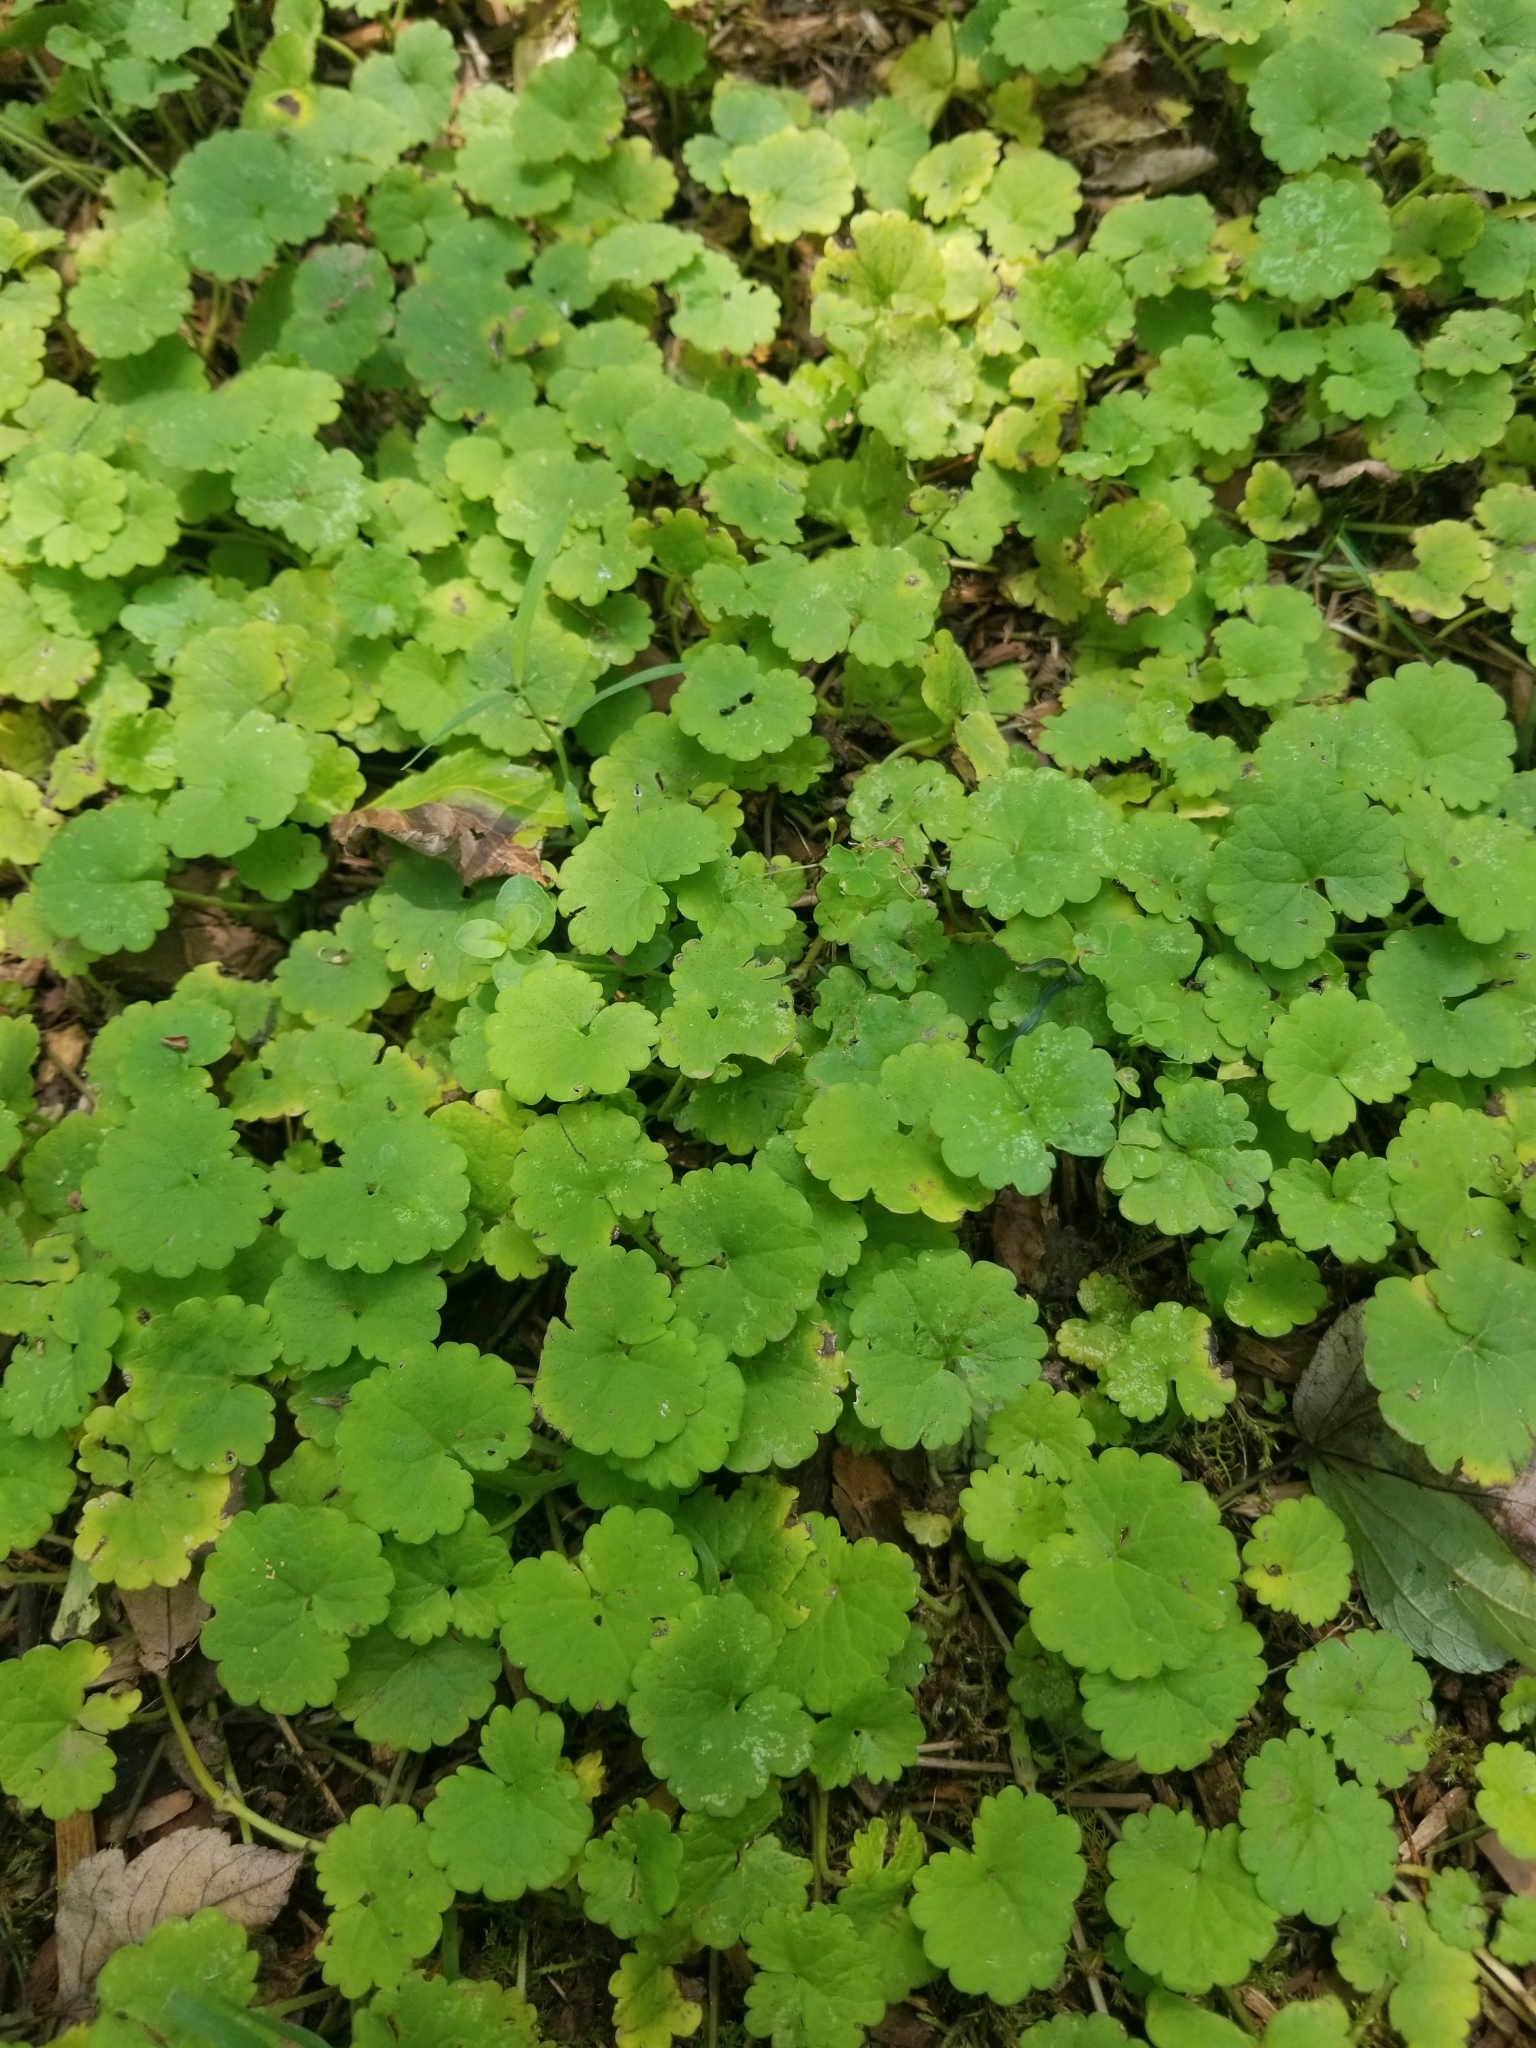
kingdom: Plantae
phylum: Tracheophyta
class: Magnoliopsida
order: Lamiales
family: Lamiaceae
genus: Glechoma
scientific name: Glechoma hederacea
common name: Ground ivy
